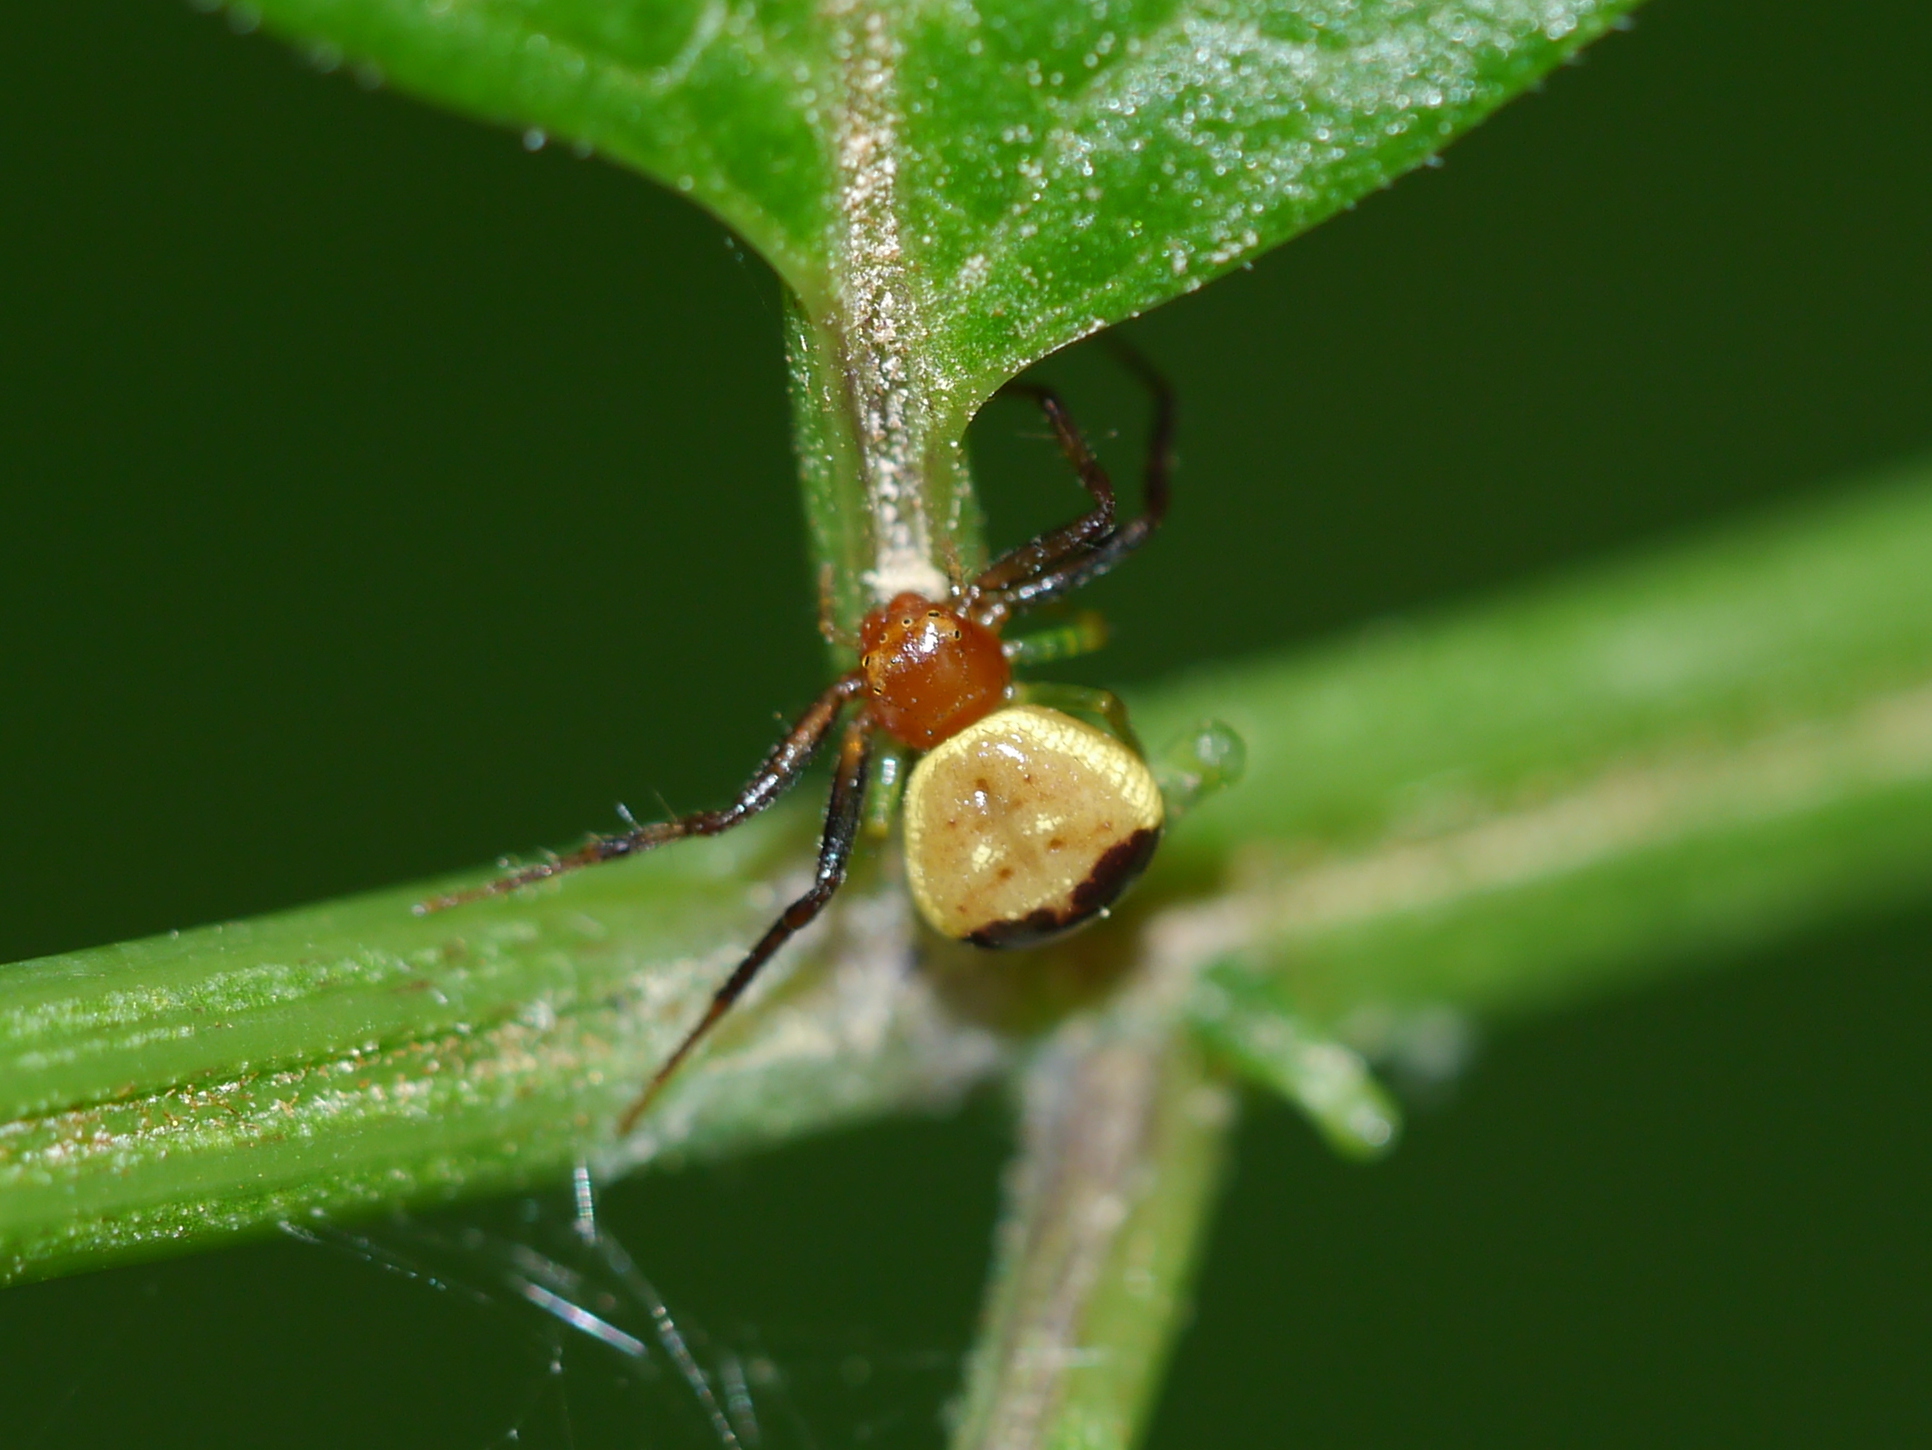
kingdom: Animalia
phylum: Arthropoda
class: Arachnida
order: Araneae
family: Thomisidae
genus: Synema
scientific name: Synema parvulum
